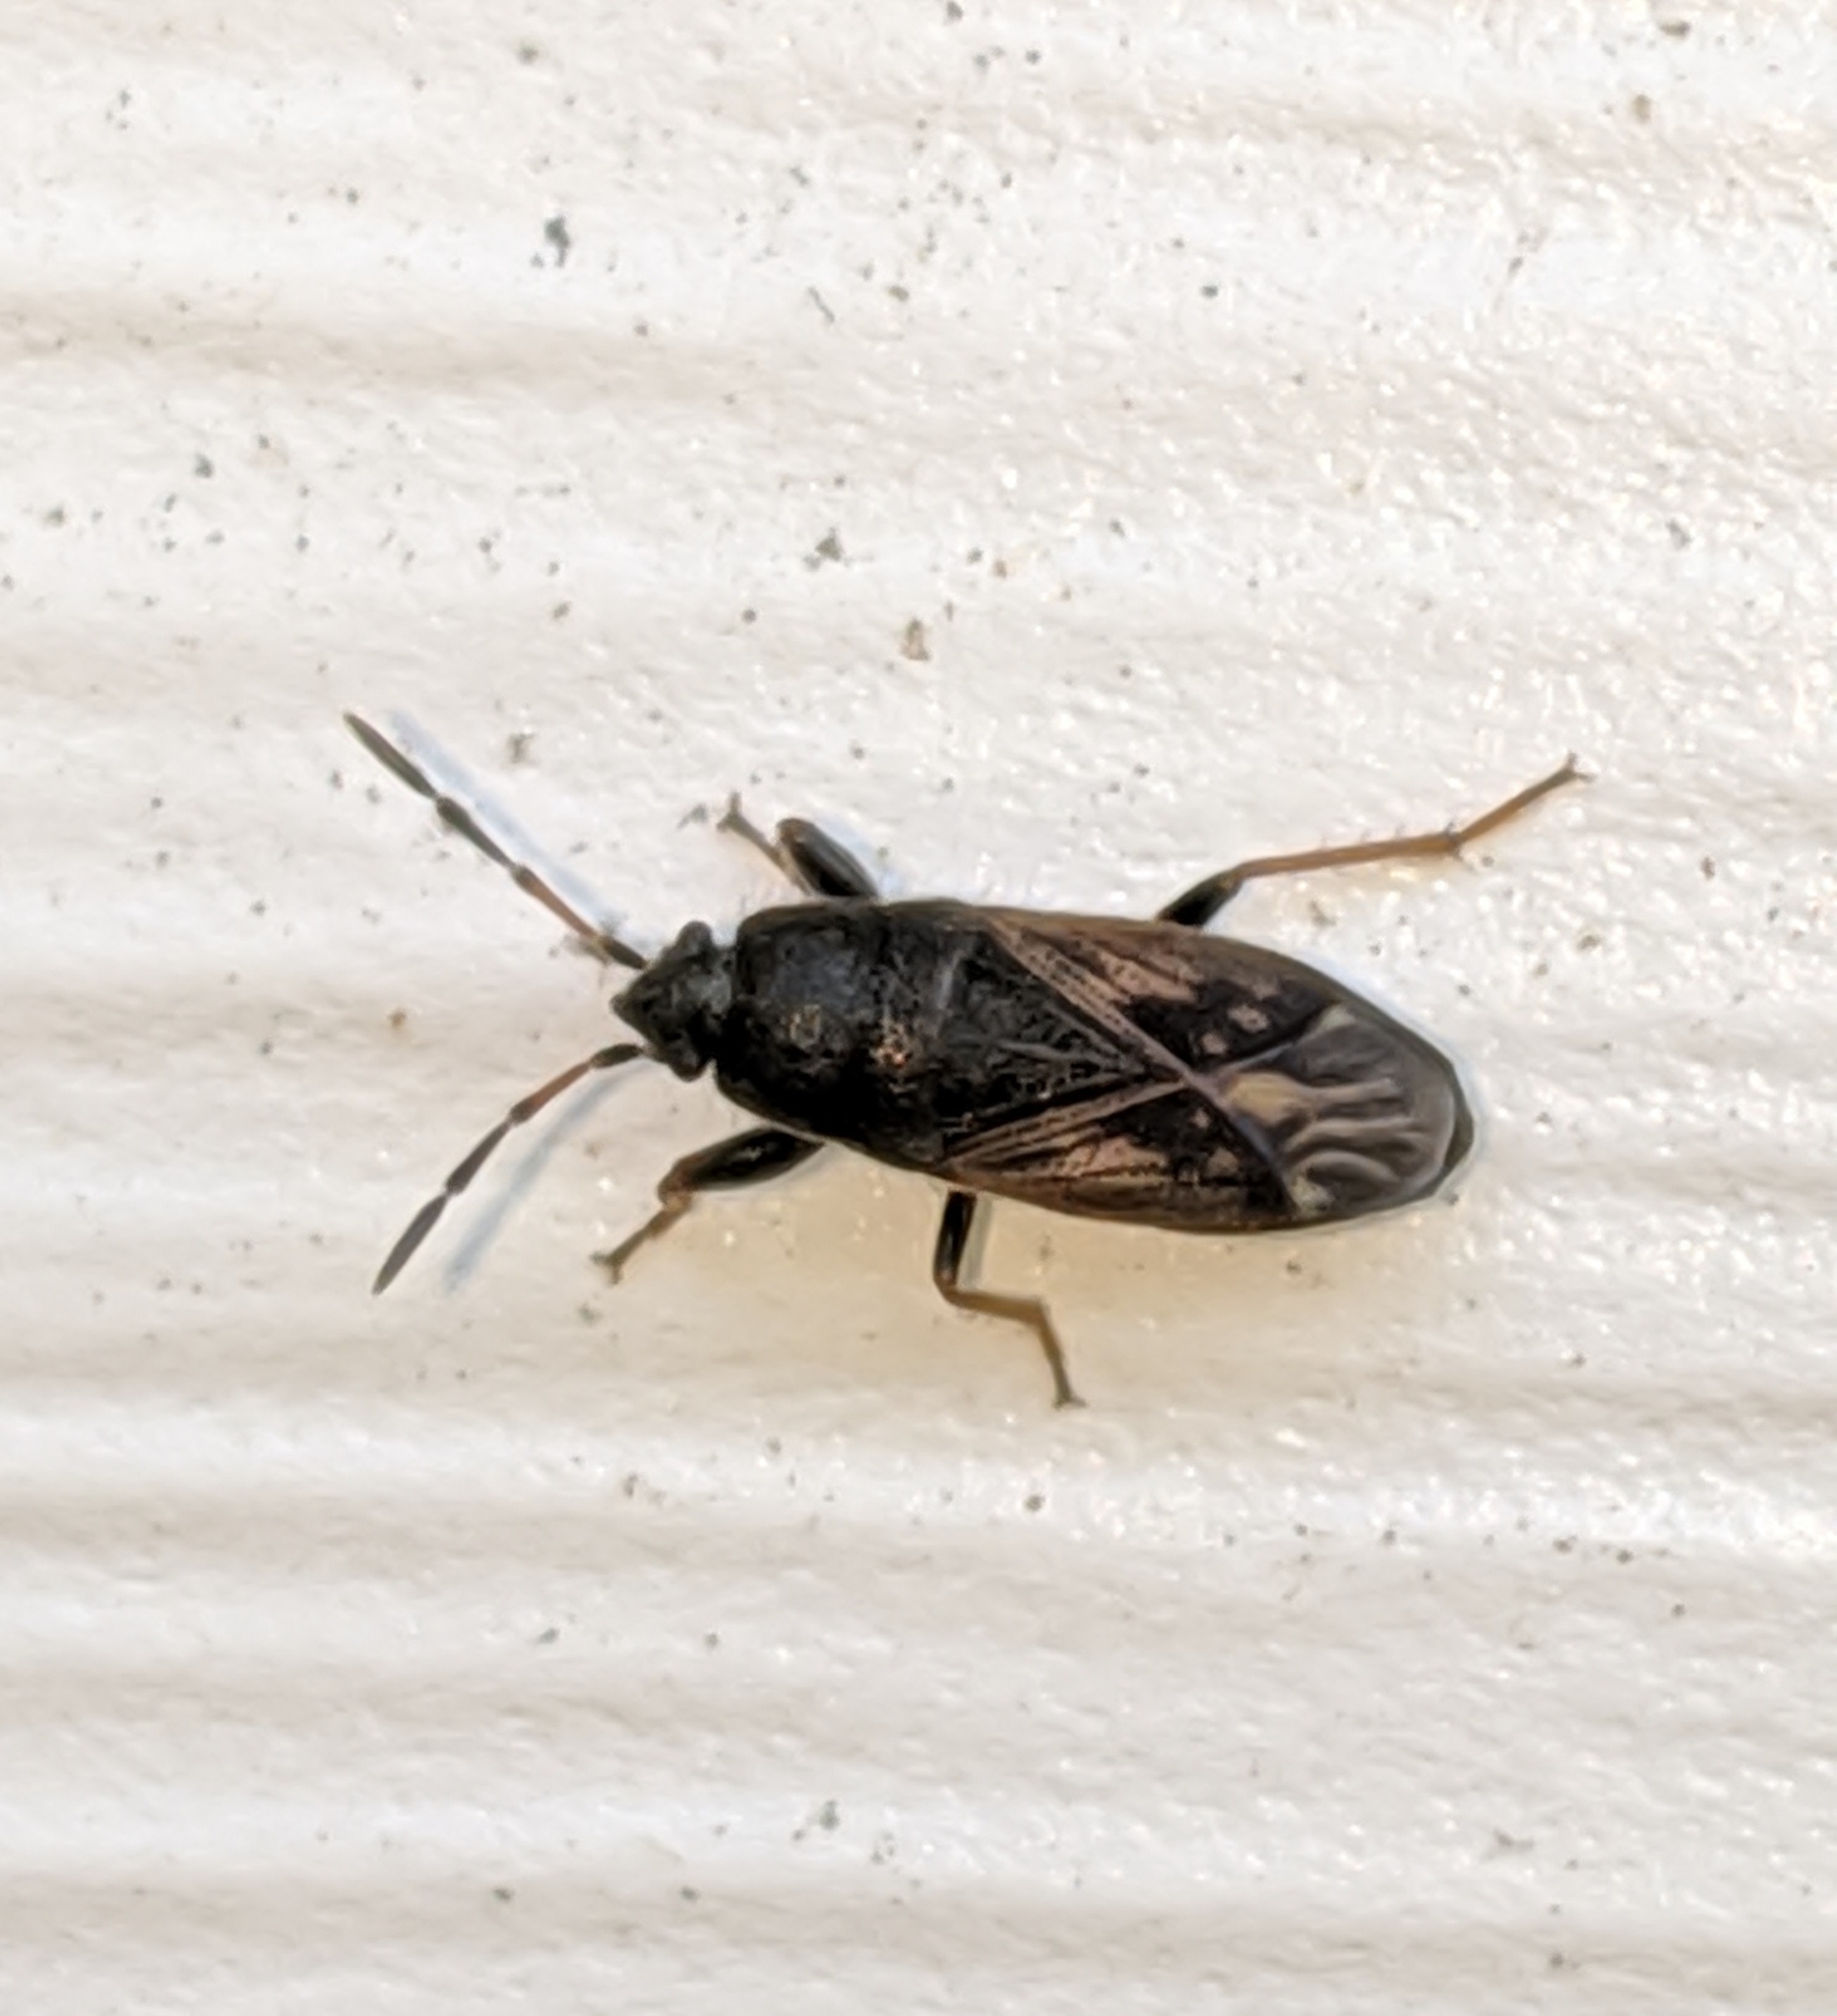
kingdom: Animalia
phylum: Arthropoda
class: Insecta
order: Hemiptera
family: Rhyparochromidae
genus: Megalonotus
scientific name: Megalonotus sabulicola
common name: Seed bug
